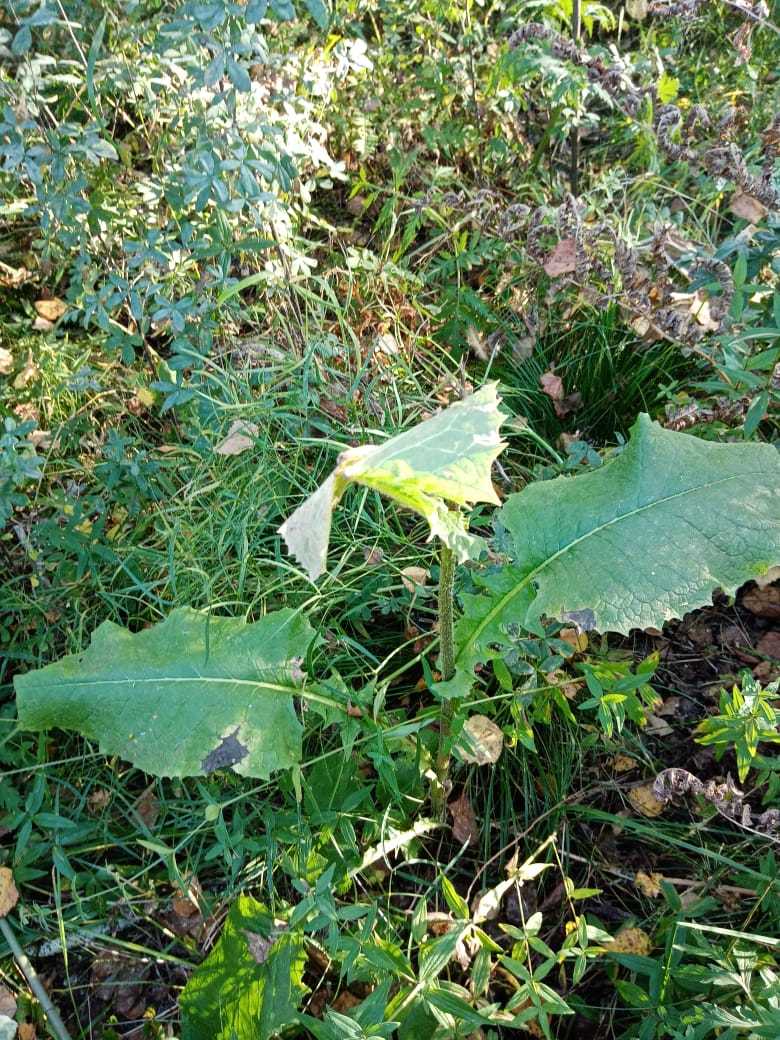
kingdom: Plantae
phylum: Tracheophyta
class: Magnoliopsida
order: Asterales
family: Asteraceae
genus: Crepis
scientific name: Crepis sibirica
